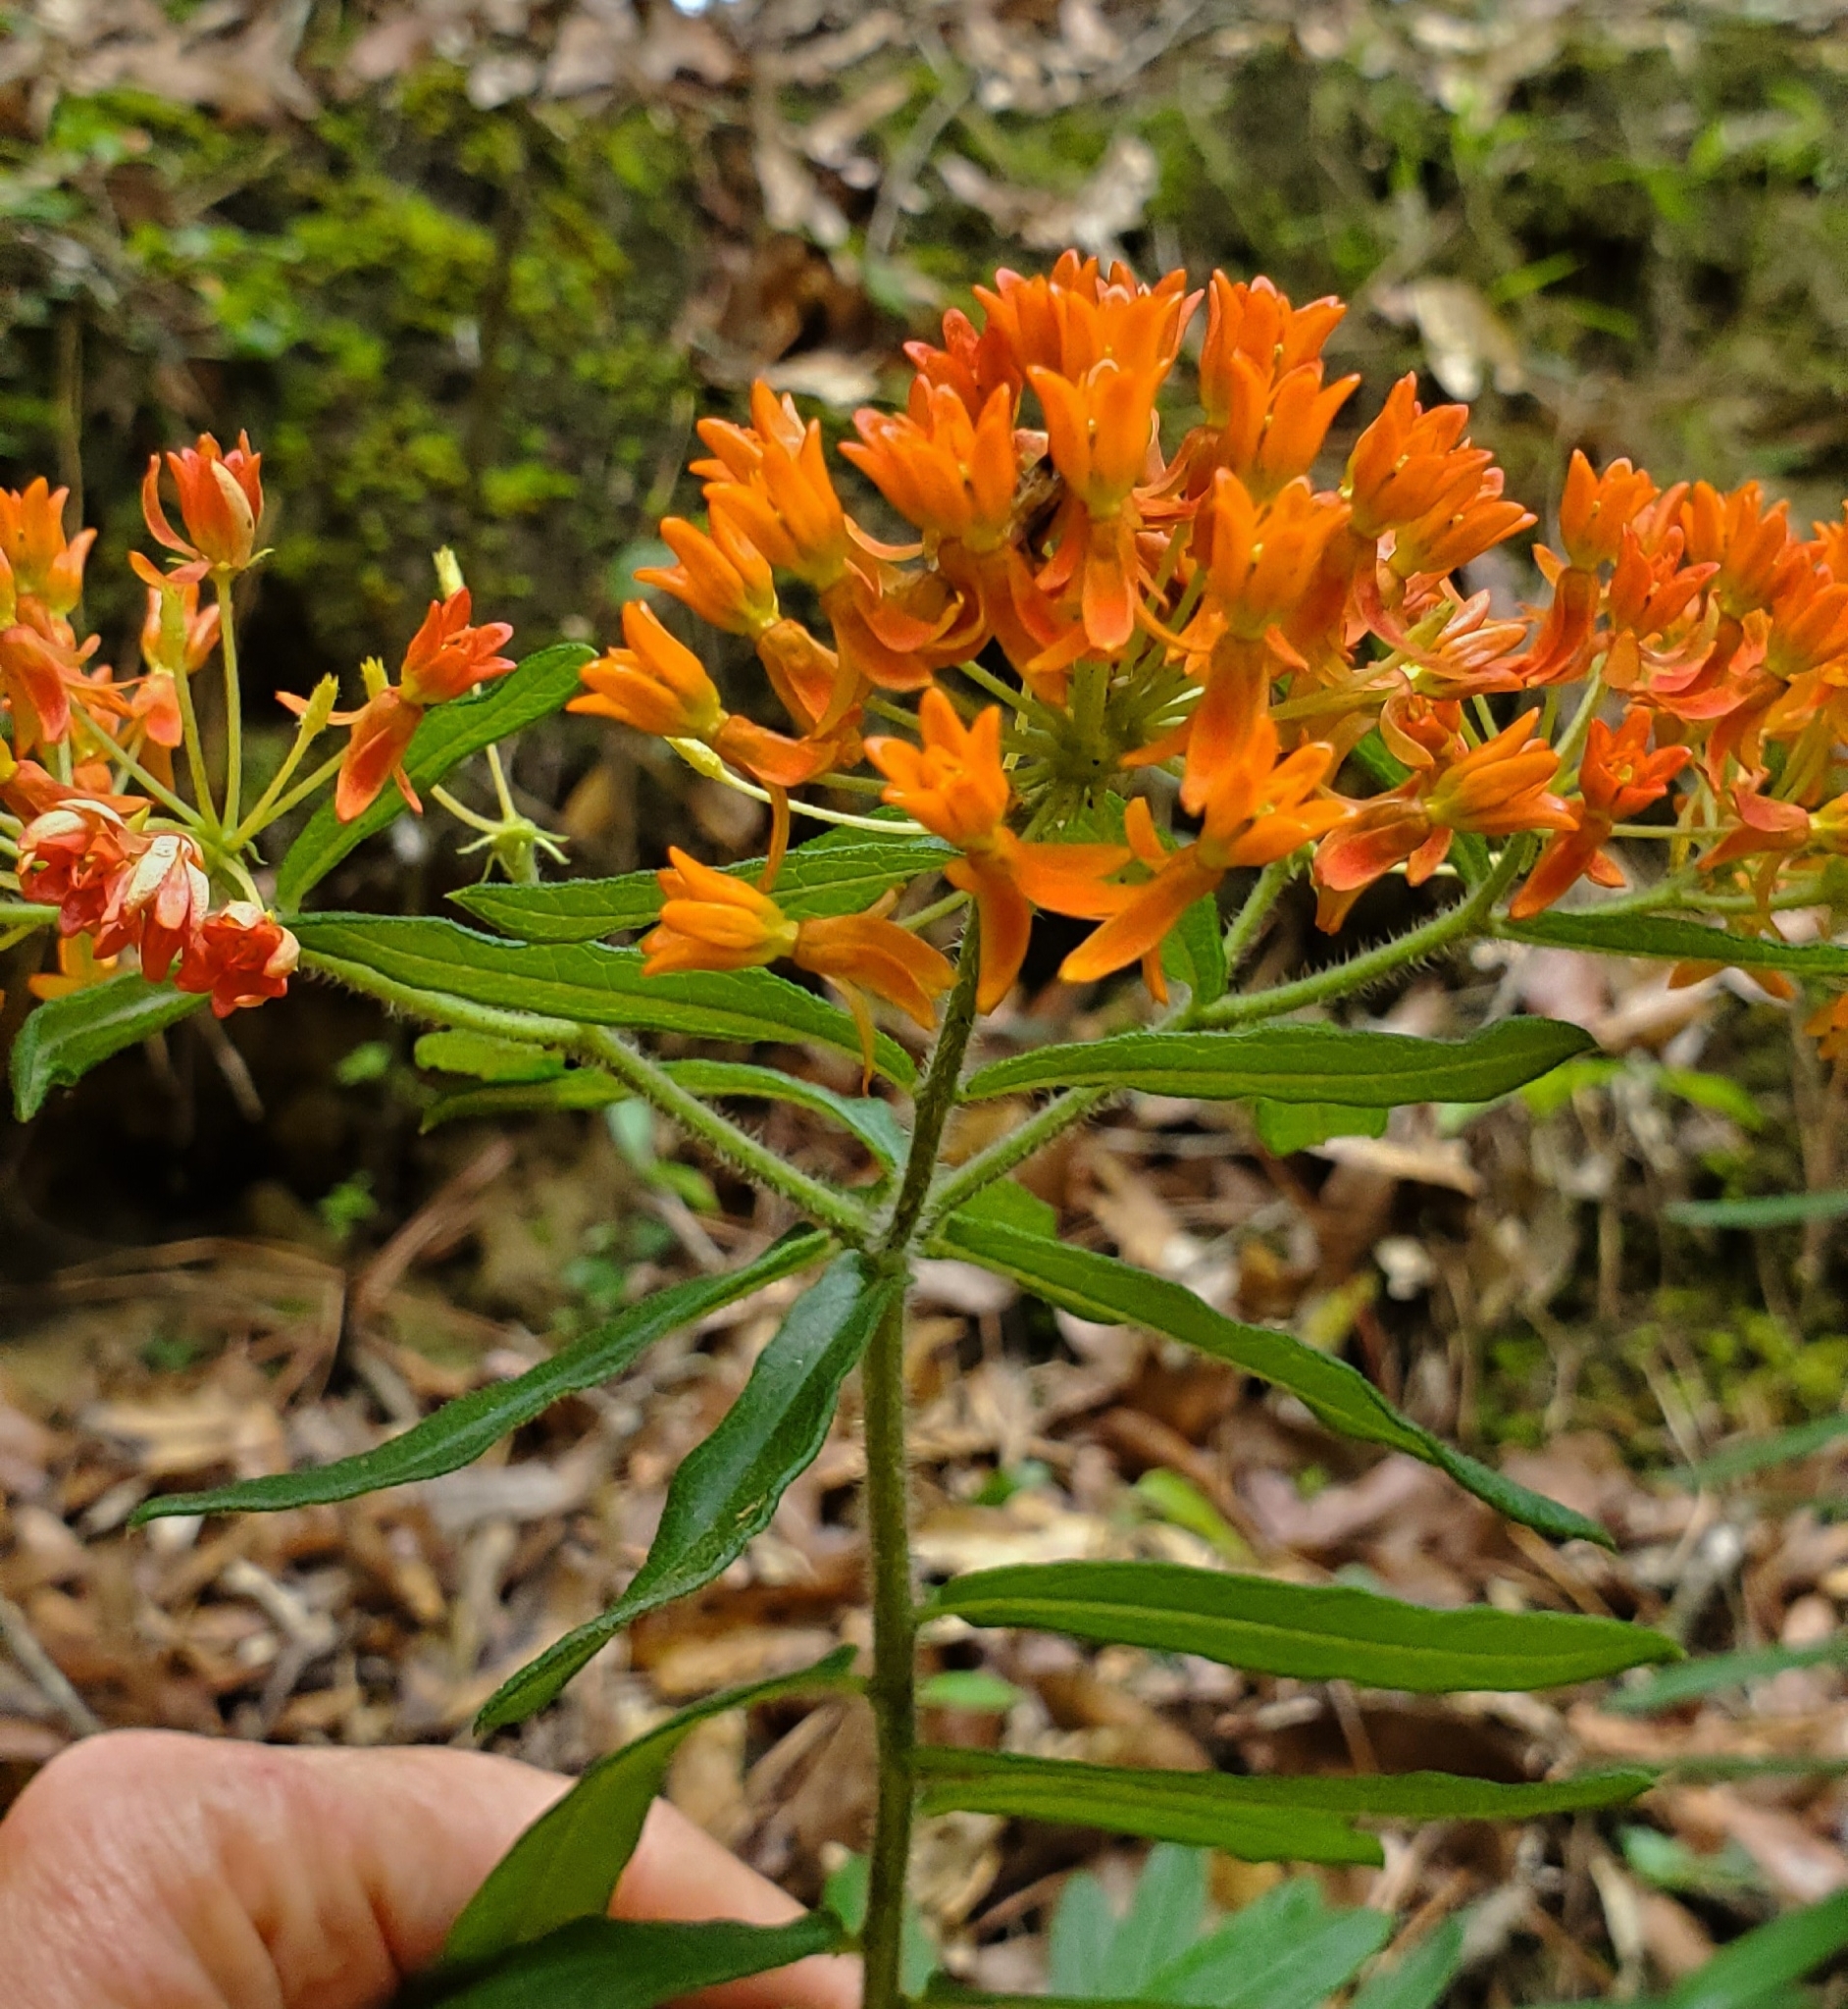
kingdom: Plantae
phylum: Tracheophyta
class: Magnoliopsida
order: Gentianales
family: Apocynaceae
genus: Asclepias
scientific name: Asclepias tuberosa
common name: Butterfly milkweed
